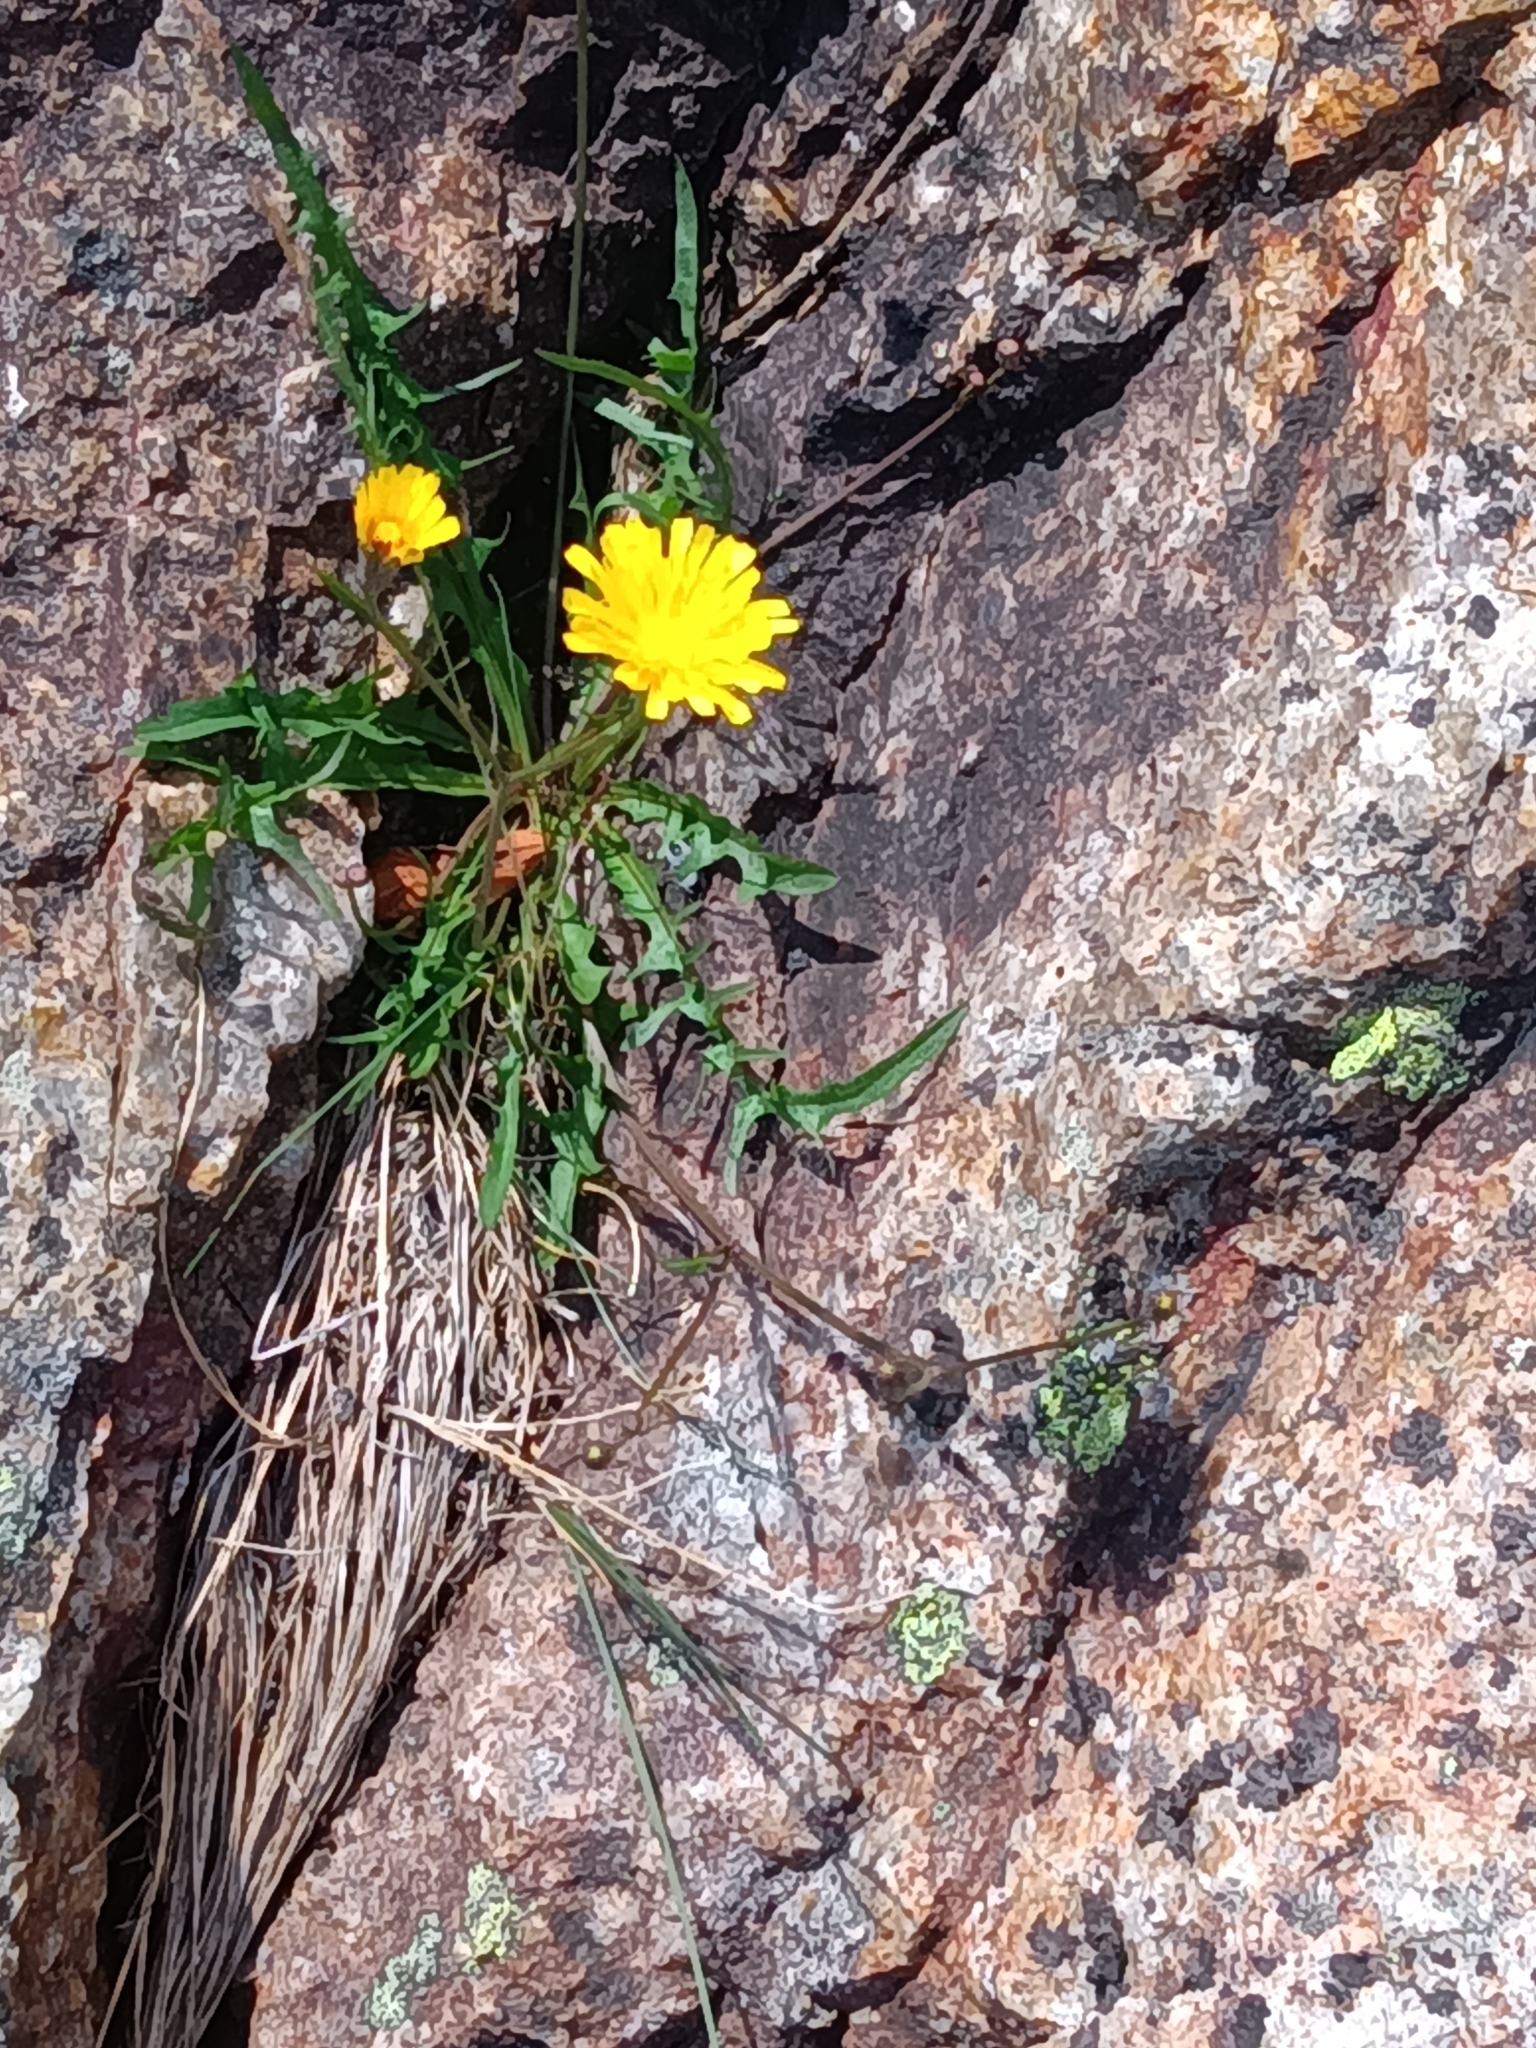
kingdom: Plantae
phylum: Tracheophyta
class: Magnoliopsida
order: Asterales
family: Asteraceae
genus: Scorzoneroides
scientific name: Scorzoneroides autumnalis
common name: Autumn hawkbit
